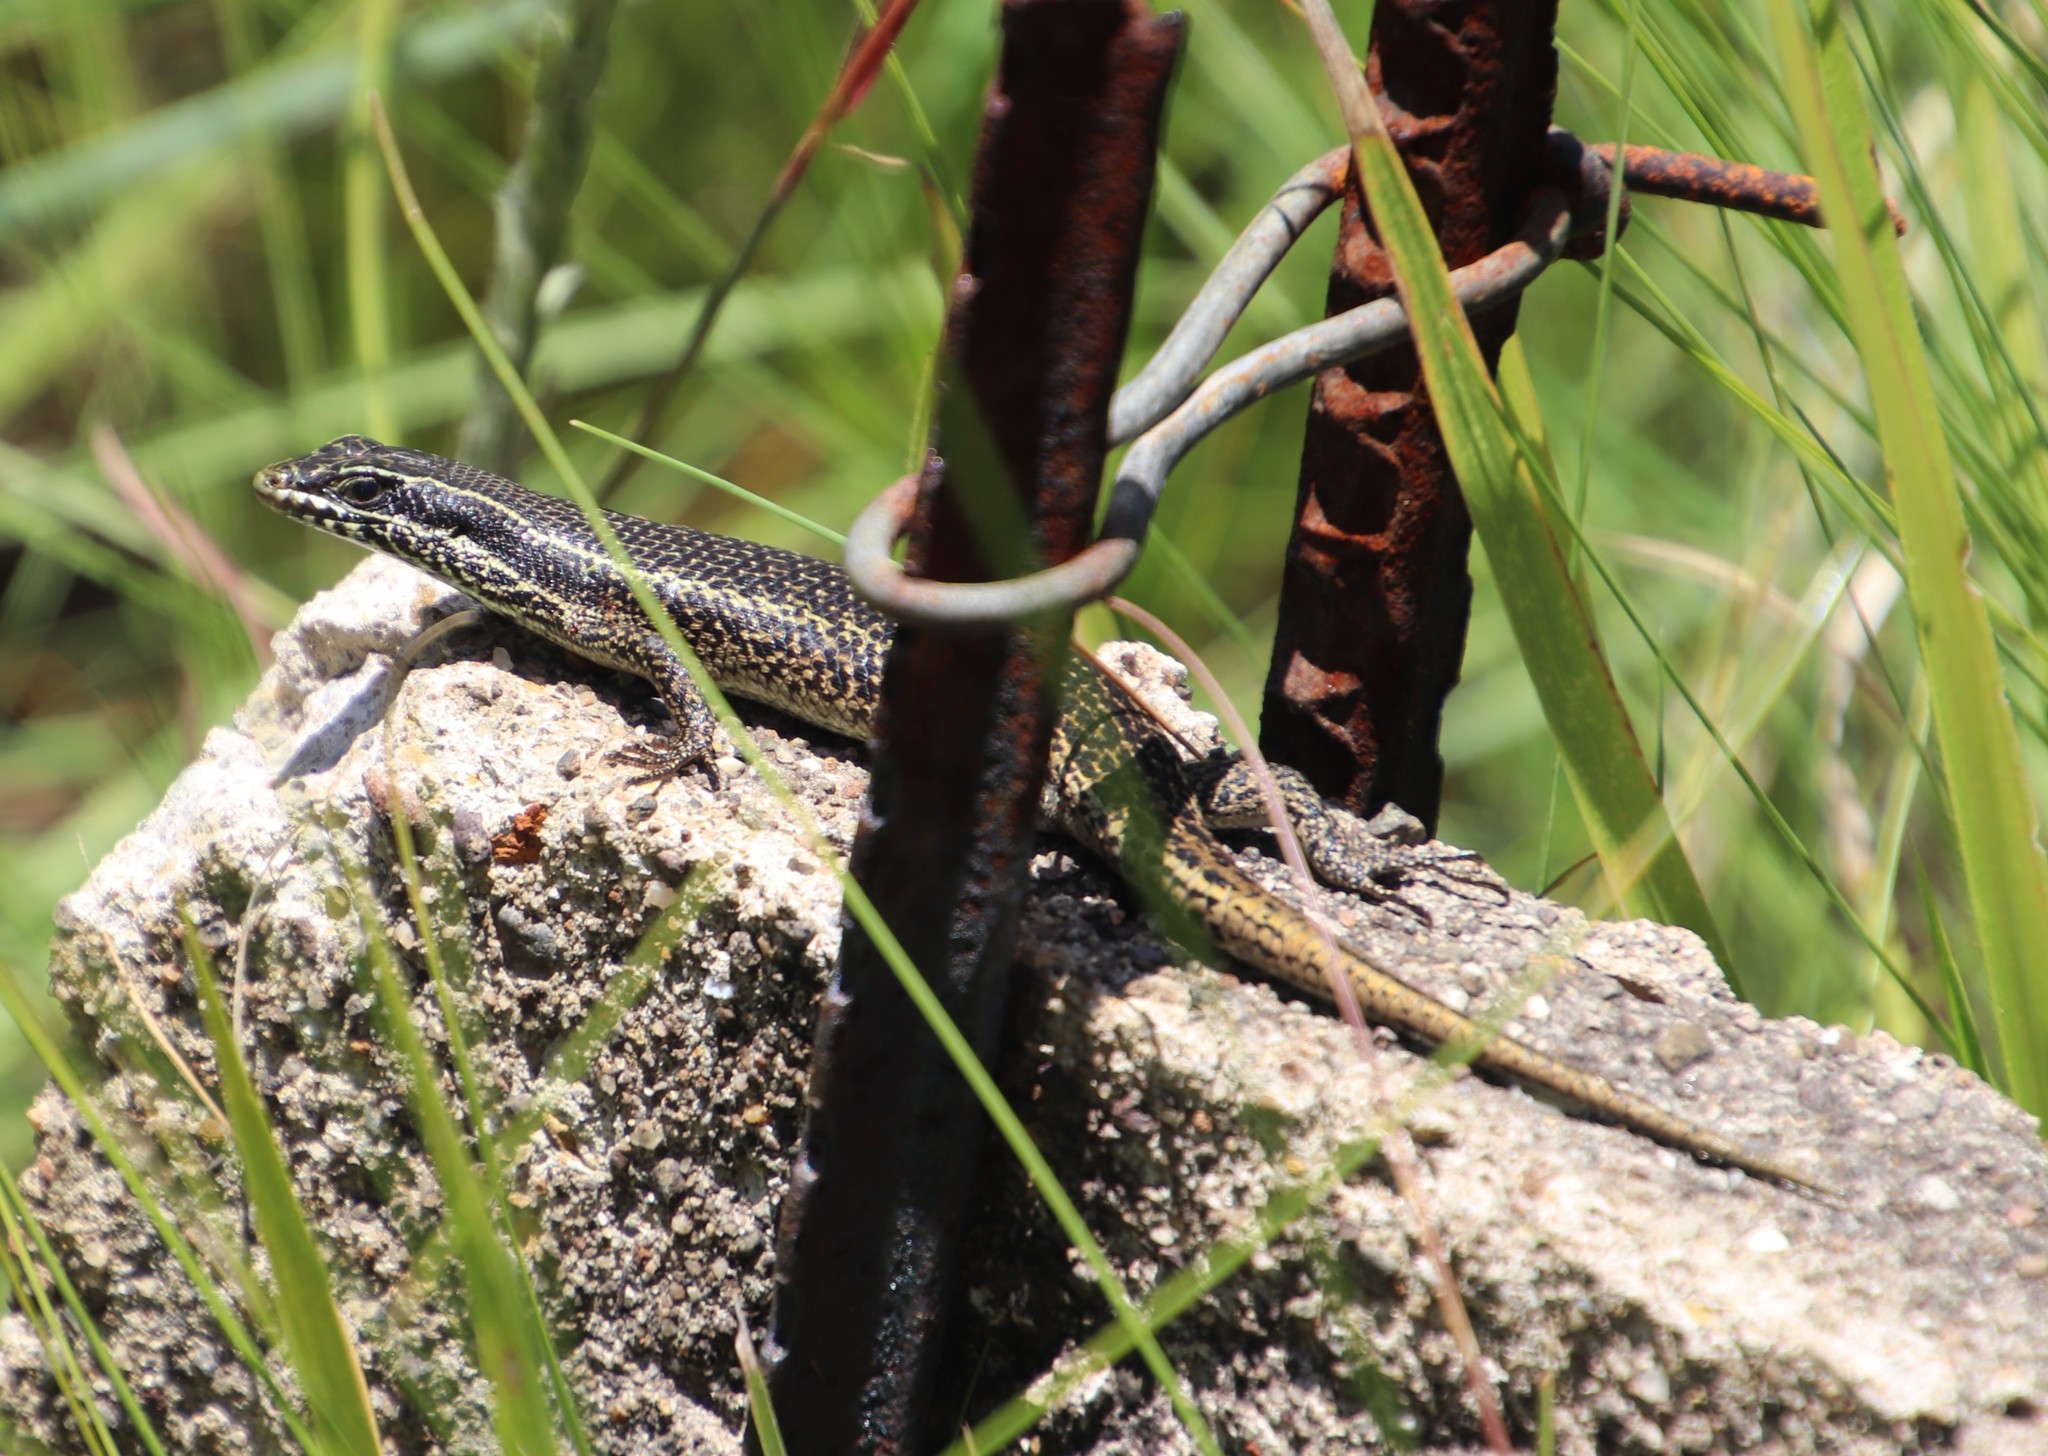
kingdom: Animalia
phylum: Chordata
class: Squamata
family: Scincidae
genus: Trachylepis
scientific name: Trachylepis punctatissima
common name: Montane speckled skink
